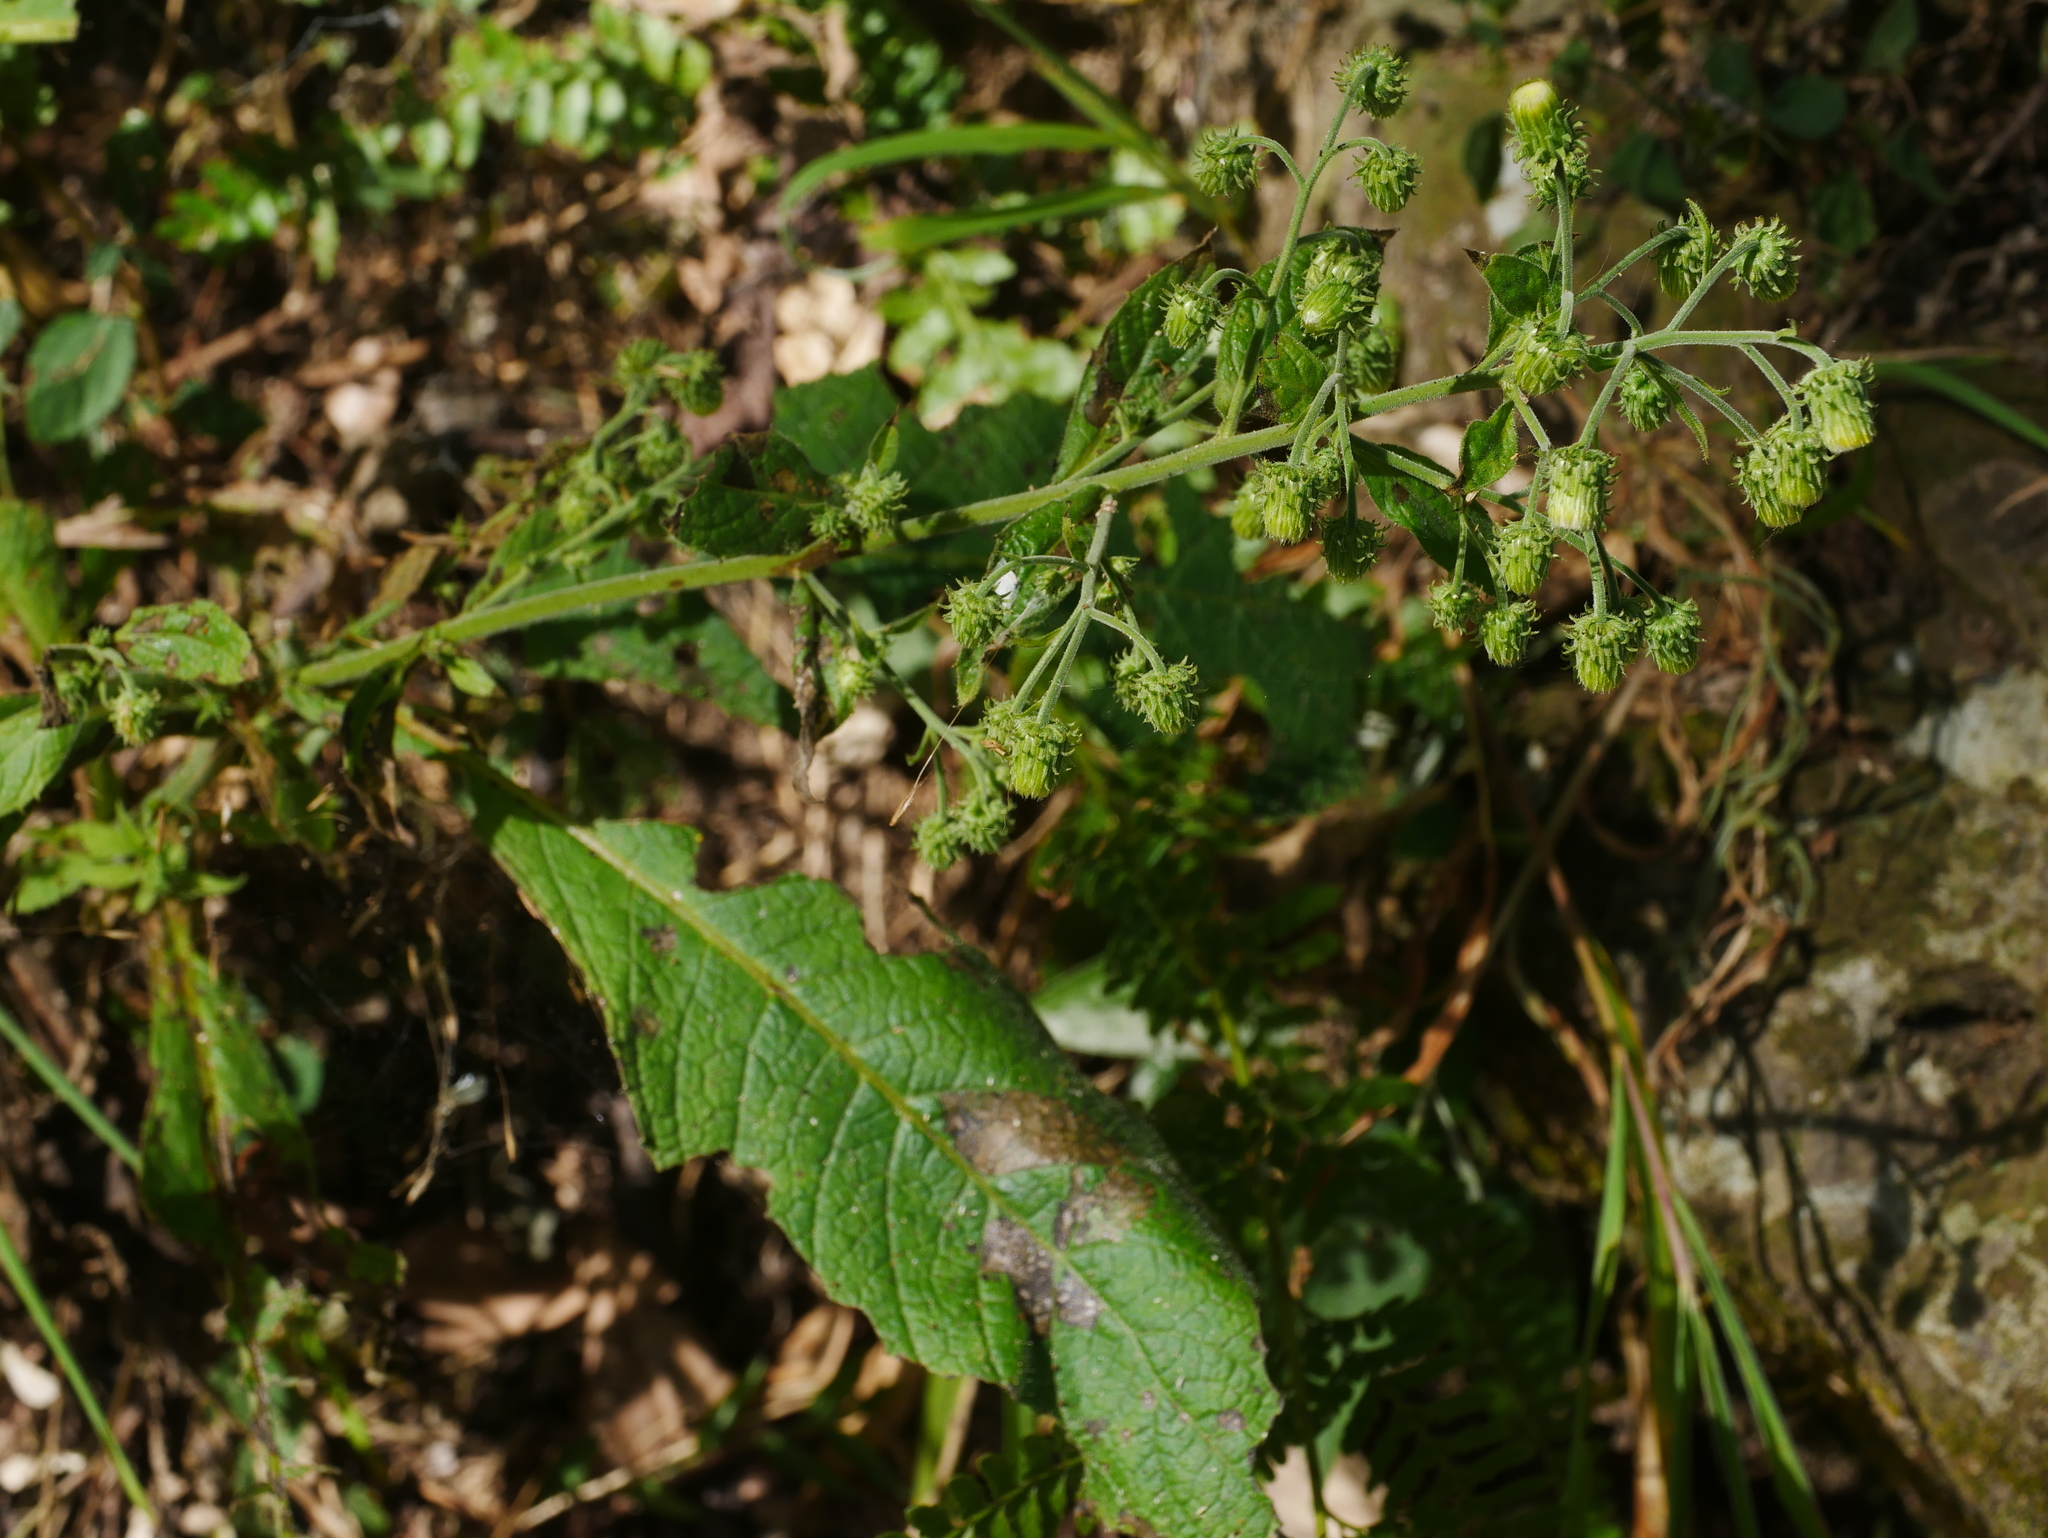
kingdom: Plantae
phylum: Tracheophyta
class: Magnoliopsida
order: Asterales
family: Asteraceae
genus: Blumea
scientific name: Blumea aromatica
